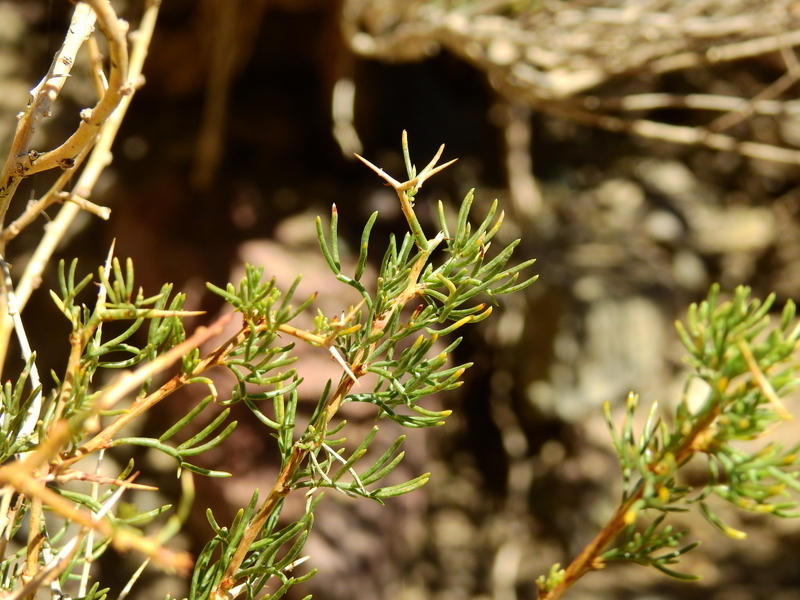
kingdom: Plantae
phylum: Tracheophyta
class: Magnoliopsida
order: Fabales
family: Fabaceae
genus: Adesmia
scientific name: Adesmia pinifolia
